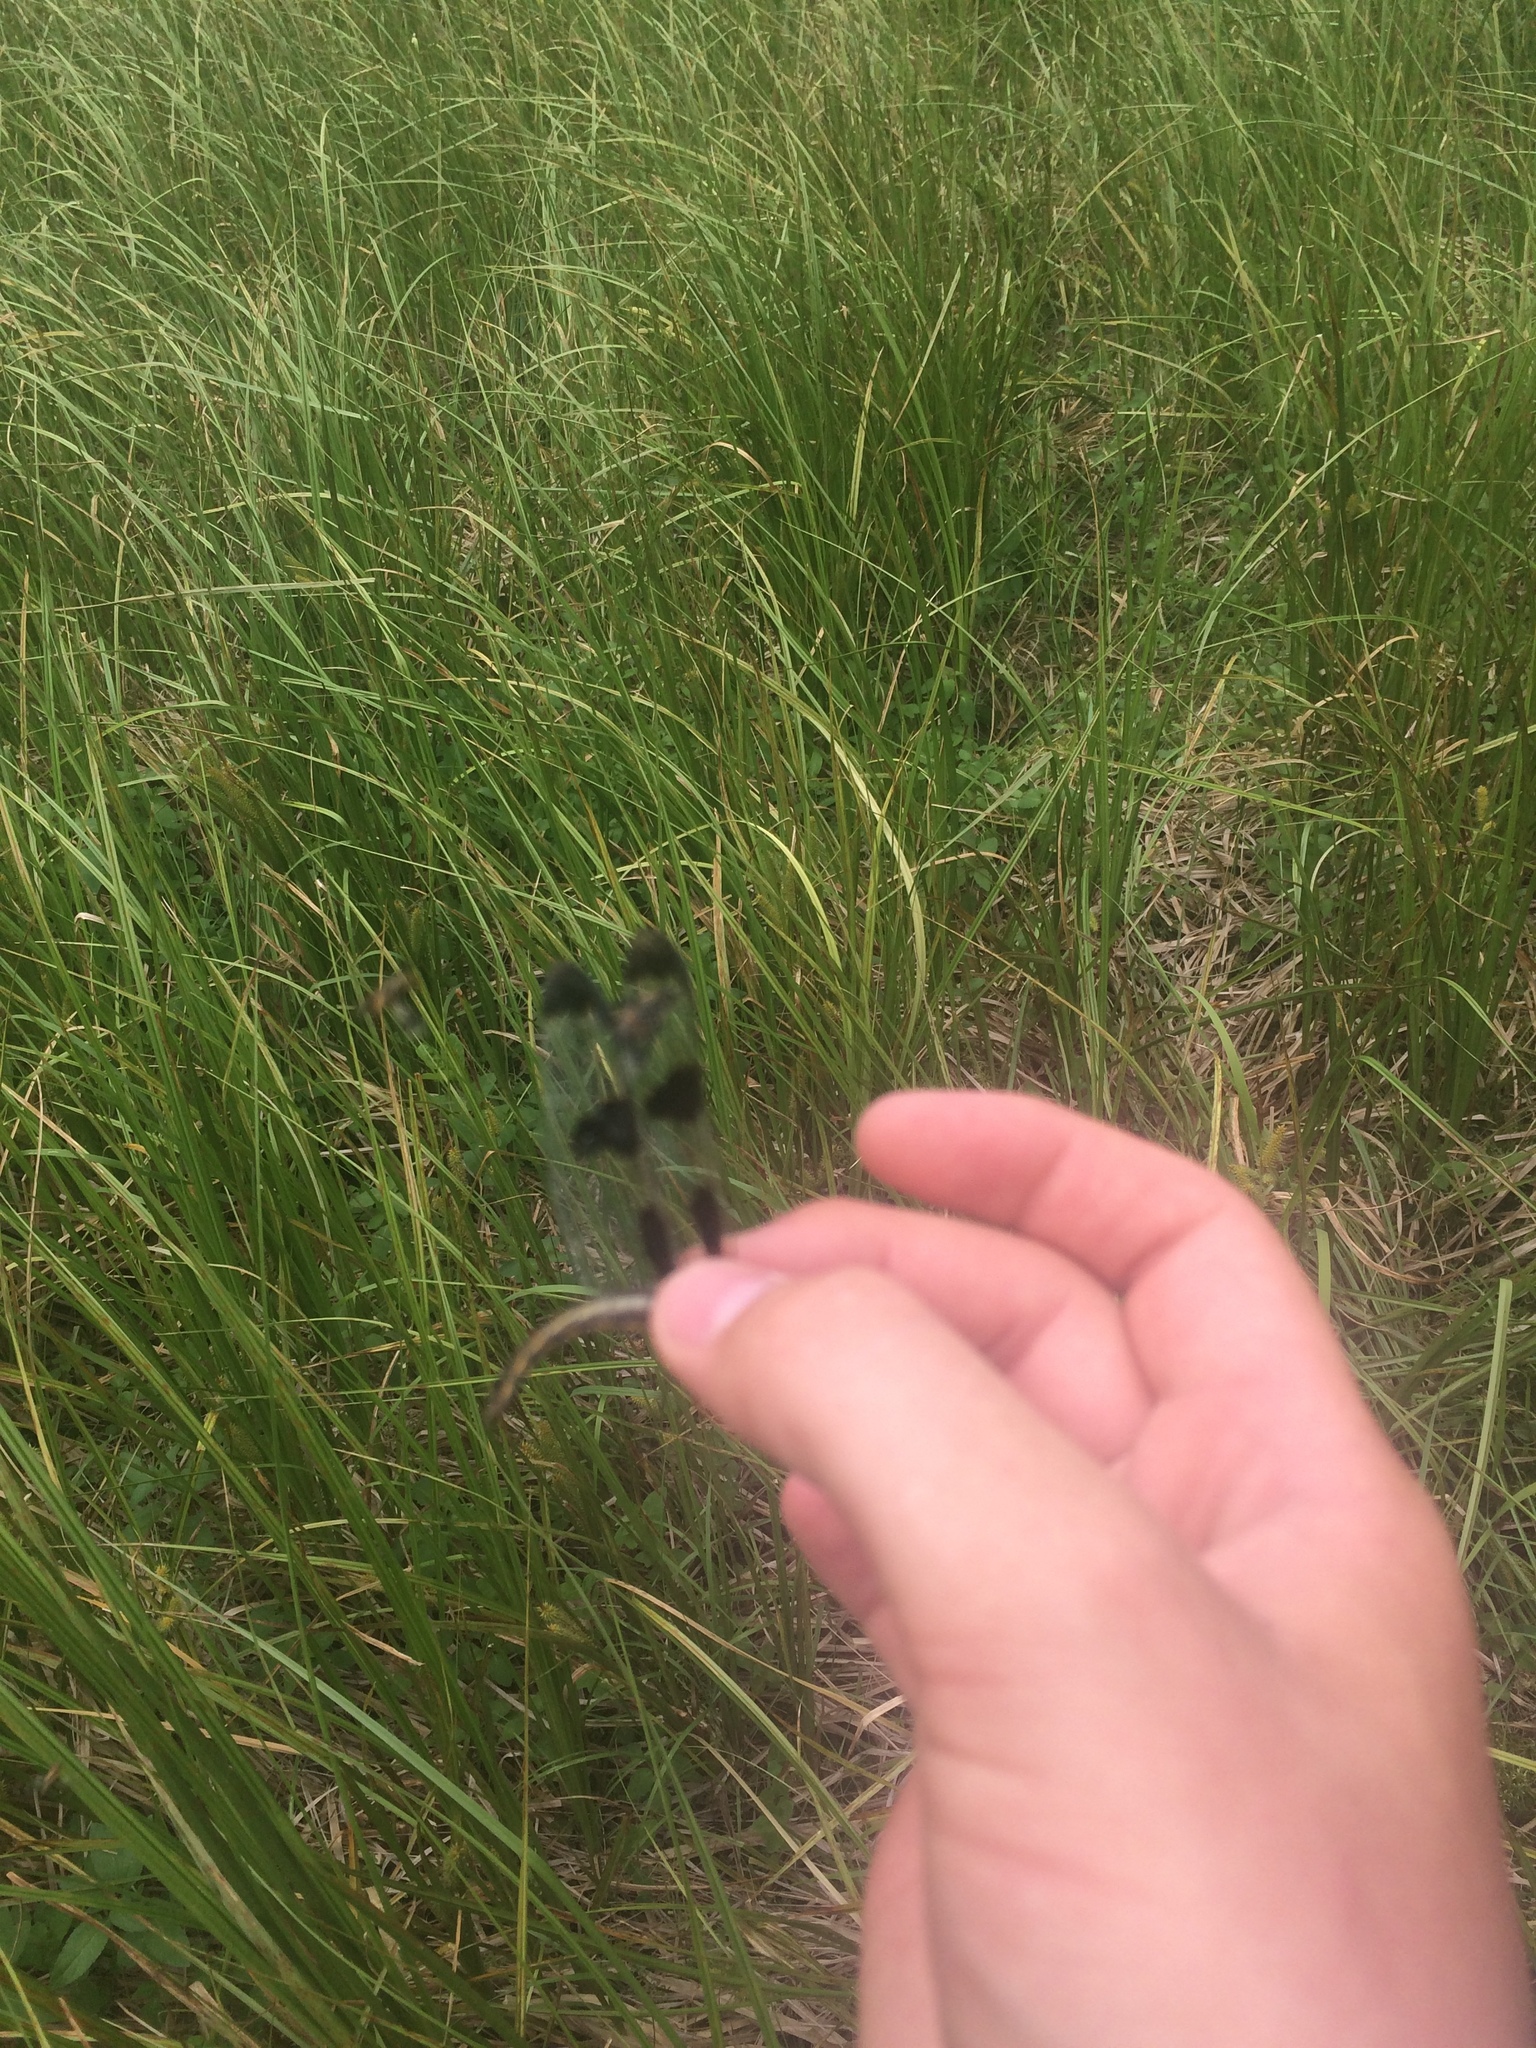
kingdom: Animalia
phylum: Arthropoda
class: Insecta
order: Odonata
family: Libellulidae
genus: Libellula
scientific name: Libellula pulchella
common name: Twelve-spotted skimmer
